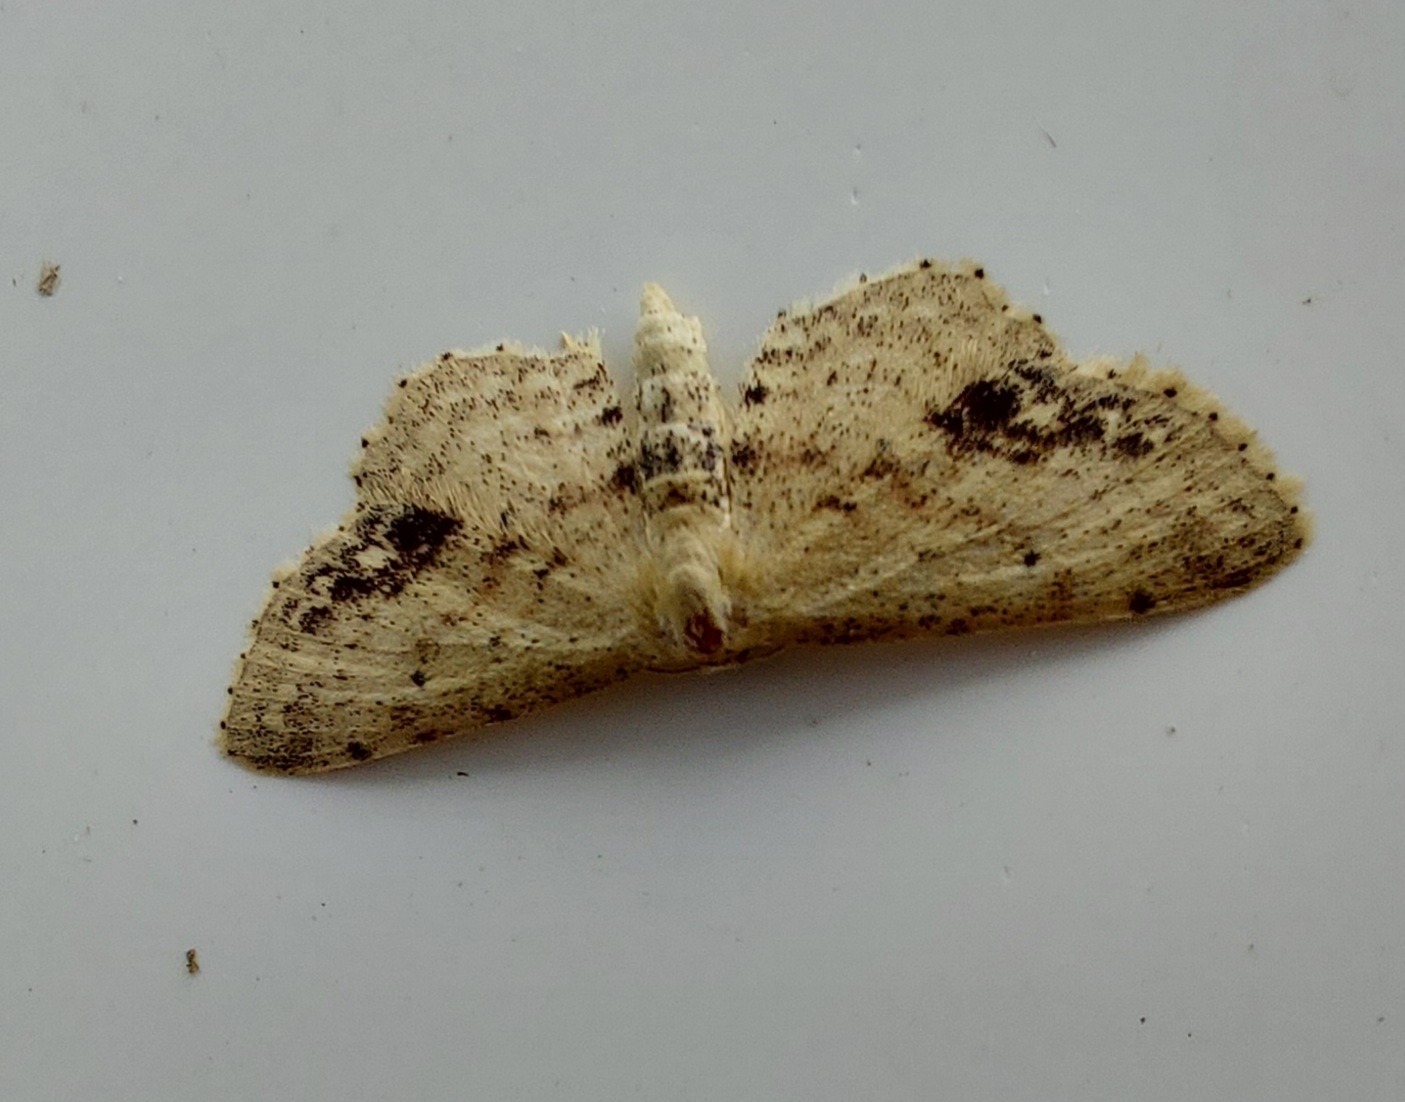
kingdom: Animalia
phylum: Arthropoda
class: Insecta
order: Lepidoptera
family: Geometridae
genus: Idaea
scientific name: Idaea dimidiata
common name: Single-dotted wave
